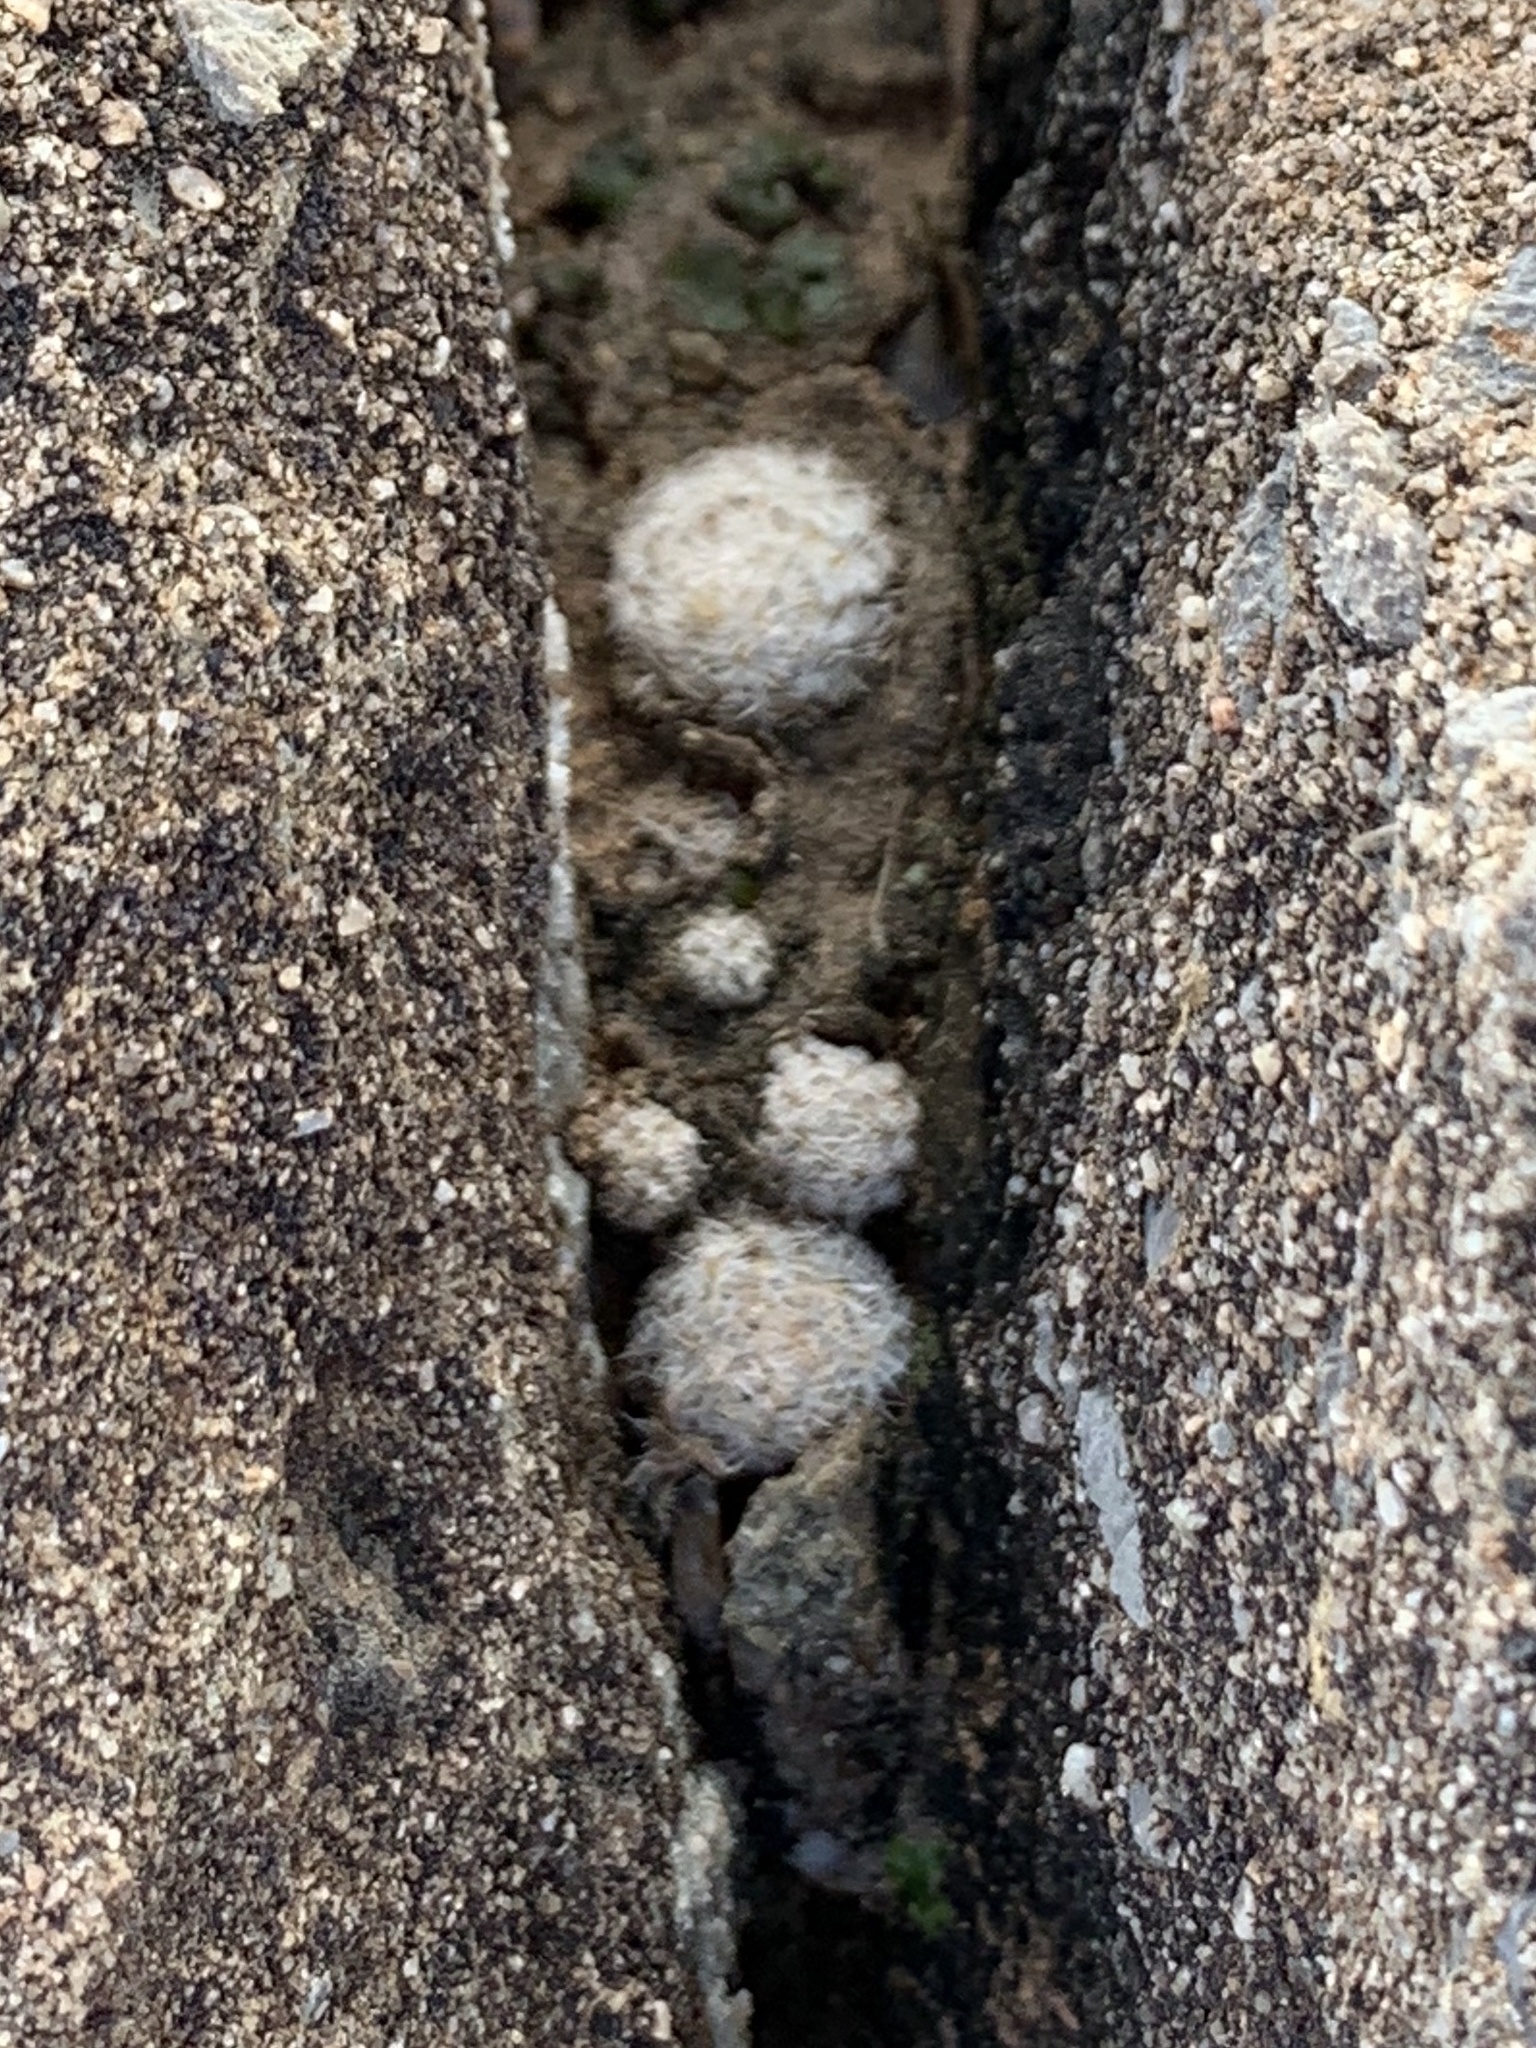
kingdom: Plantae
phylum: Tracheophyta
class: Magnoliopsida
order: Caryophyllales
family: Cactaceae
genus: Mammillaria
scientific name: Mammillaria lasiacantha
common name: Lace-spine nipple cactus
